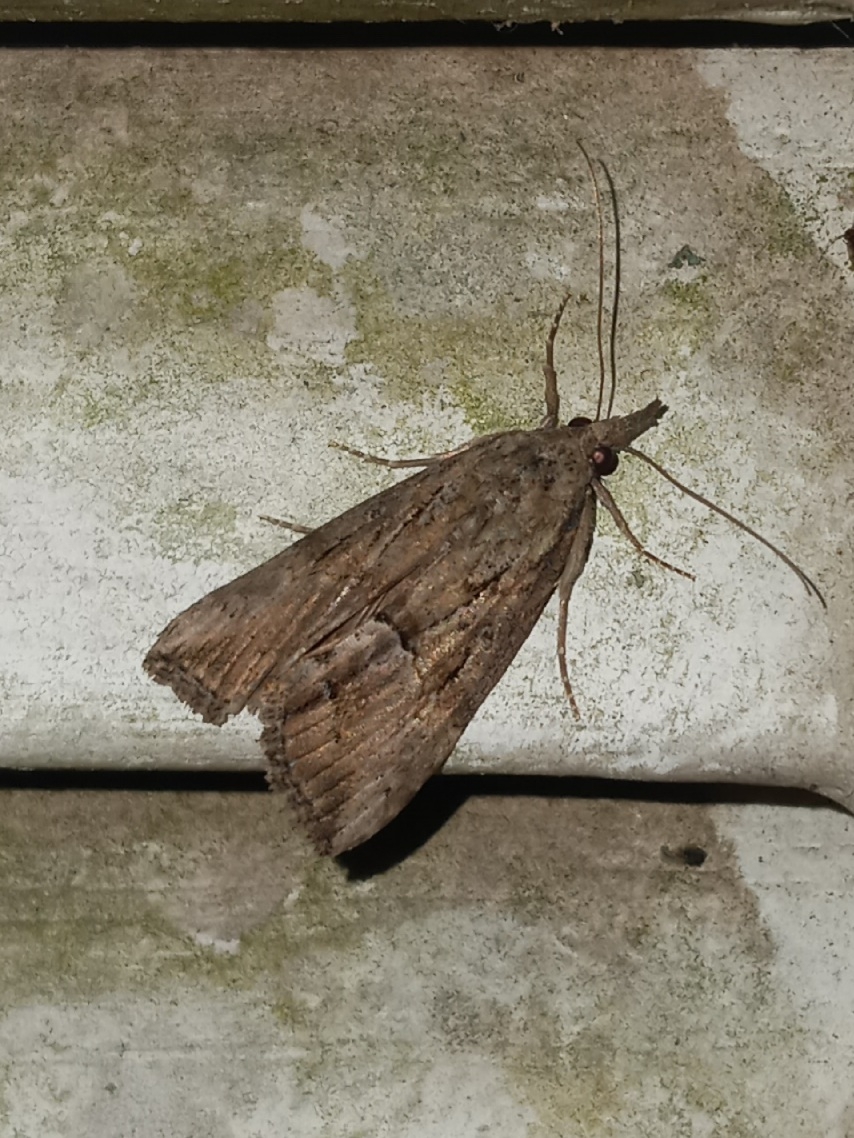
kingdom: Animalia
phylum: Arthropoda
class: Insecta
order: Lepidoptera
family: Erebidae
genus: Hypena
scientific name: Hypena scabra
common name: Green cloverworm
